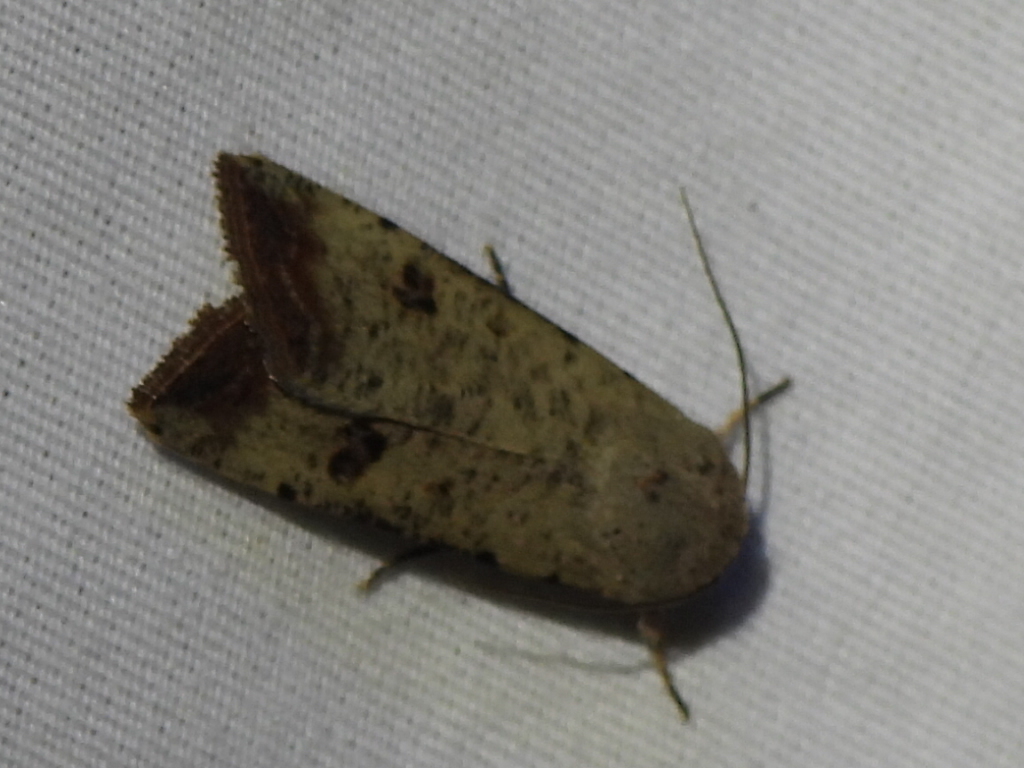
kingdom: Animalia
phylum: Arthropoda
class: Insecta
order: Lepidoptera
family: Noctuidae
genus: Anicla
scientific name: Anicla infecta
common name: Green cutworm
